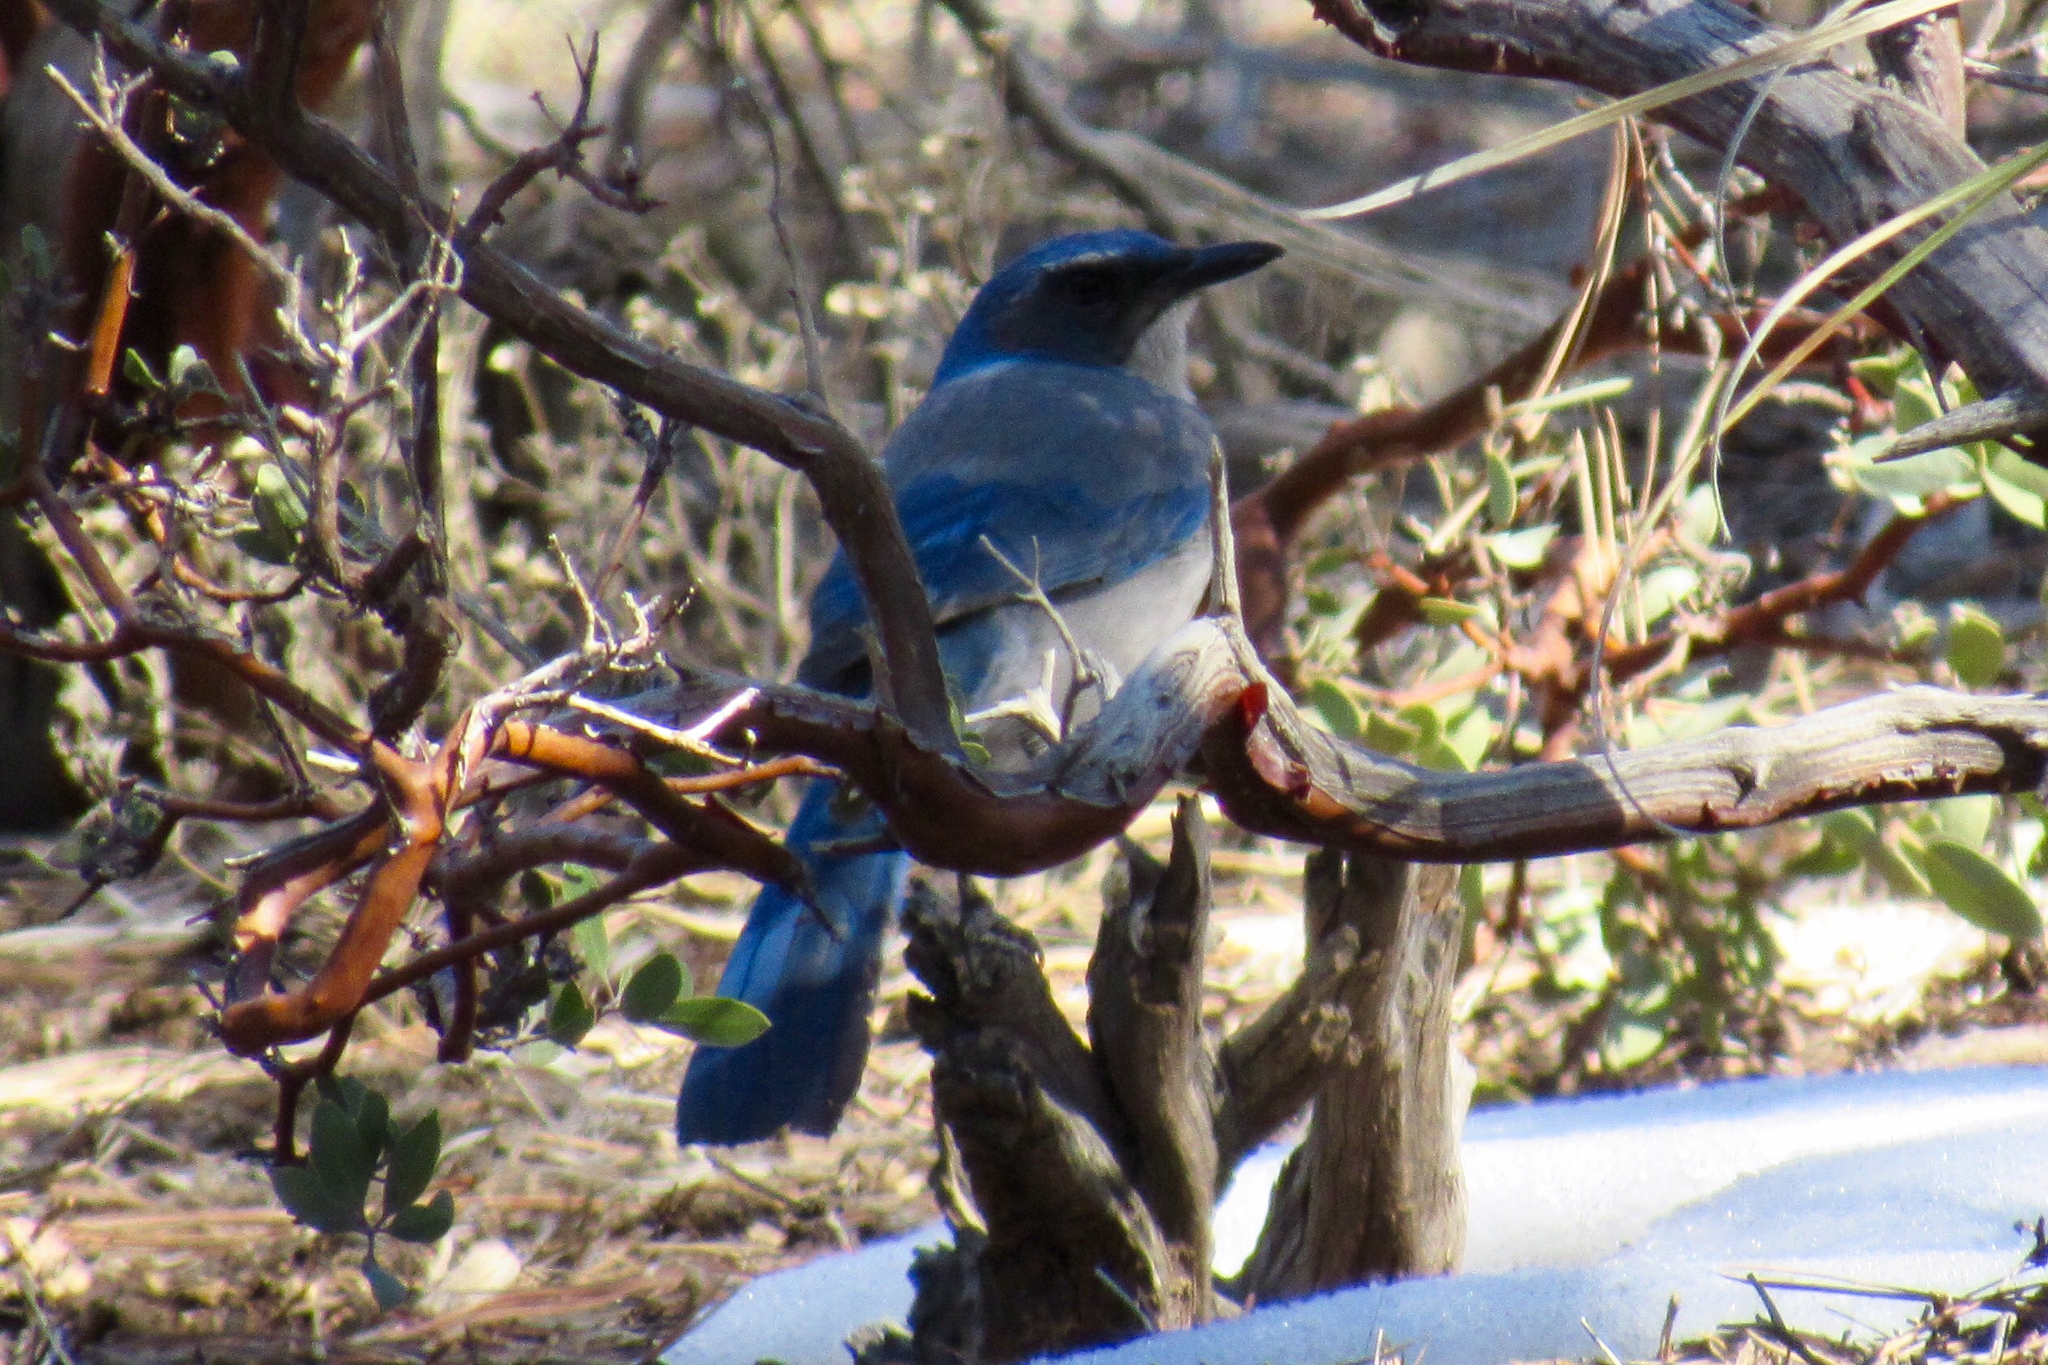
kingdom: Animalia
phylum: Chordata
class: Aves
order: Passeriformes
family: Corvidae
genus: Aphelocoma
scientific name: Aphelocoma woodhouseii
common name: Woodhouse's scrub-jay
